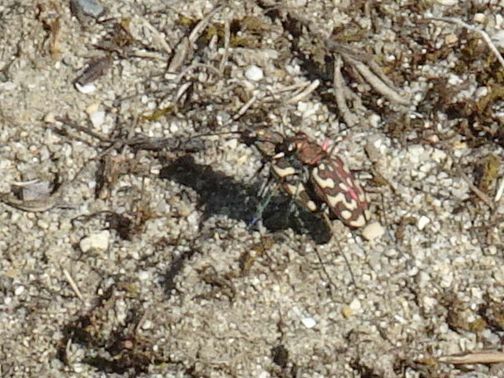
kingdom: Animalia
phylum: Arthropoda
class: Insecta
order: Coleoptera
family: Carabidae
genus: Lophyra
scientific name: Lophyra flexuosa
